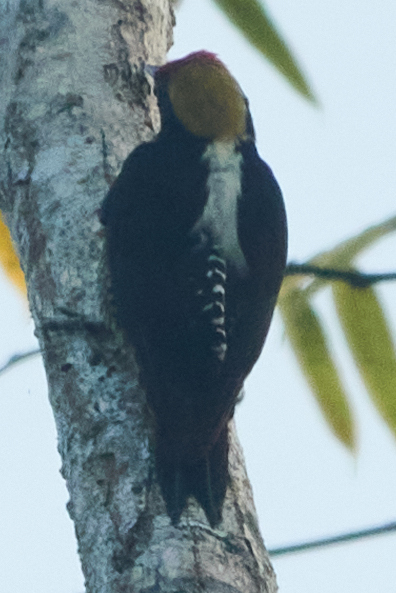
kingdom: Animalia
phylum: Chordata
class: Aves
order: Piciformes
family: Picidae
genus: Melanerpes
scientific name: Melanerpes chrysauchen
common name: Golden-naped woodpecker
